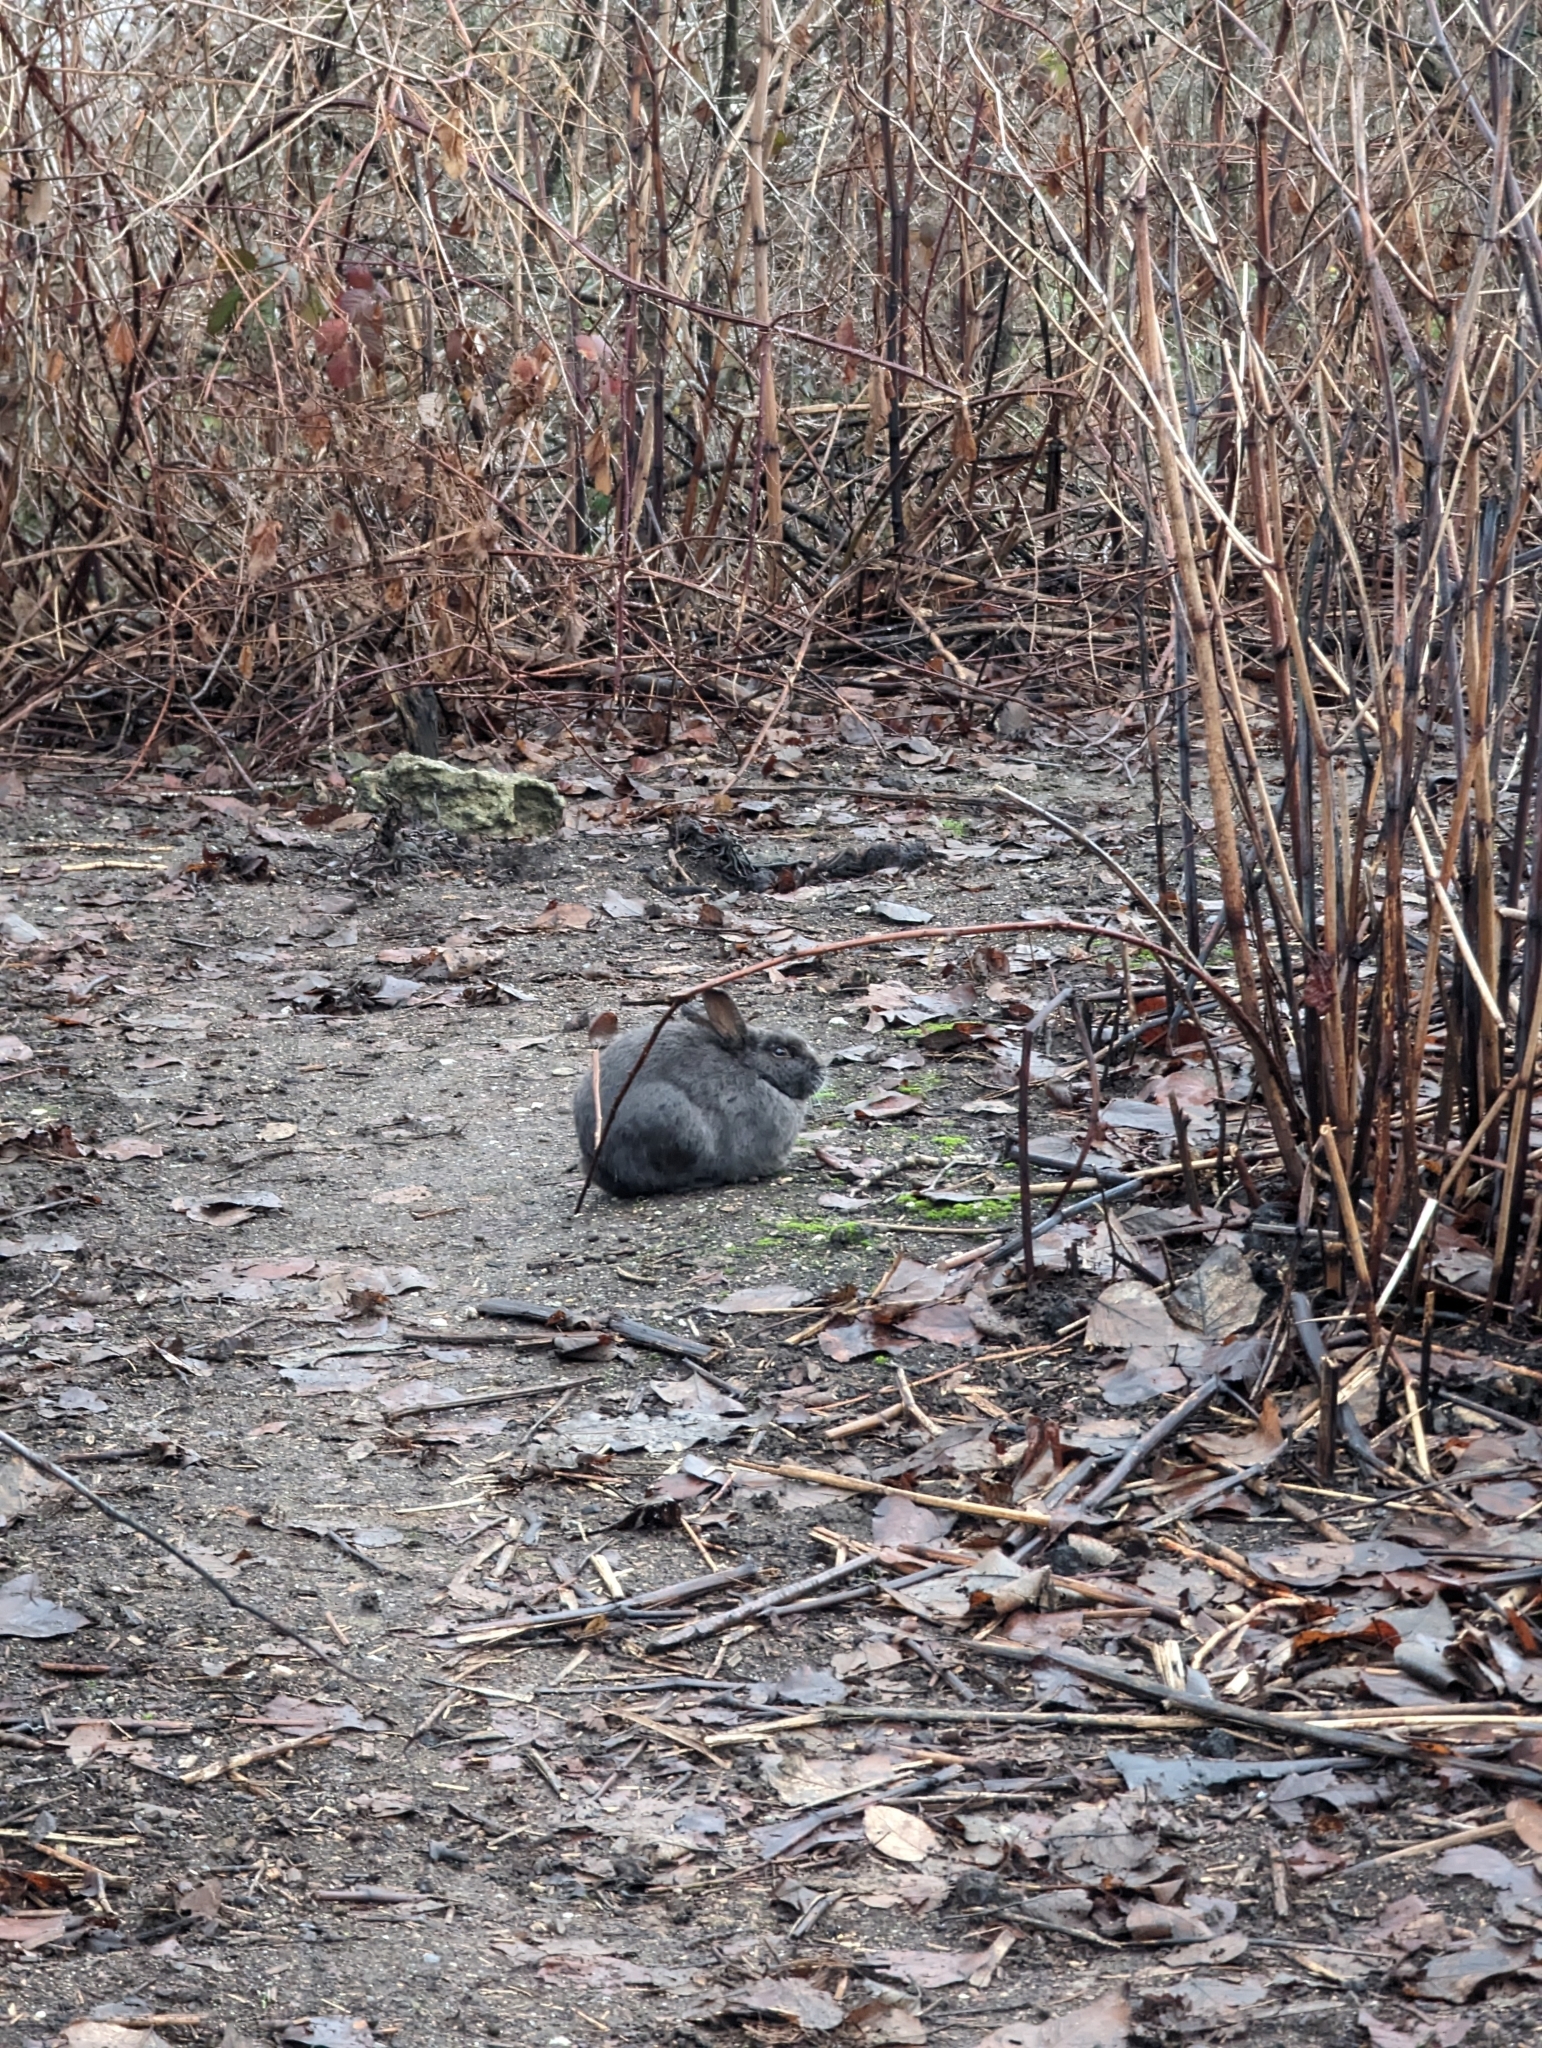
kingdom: Animalia
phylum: Chordata
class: Mammalia
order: Lagomorpha
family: Leporidae
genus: Oryctolagus
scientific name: Oryctolagus cuniculus
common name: European rabbit
